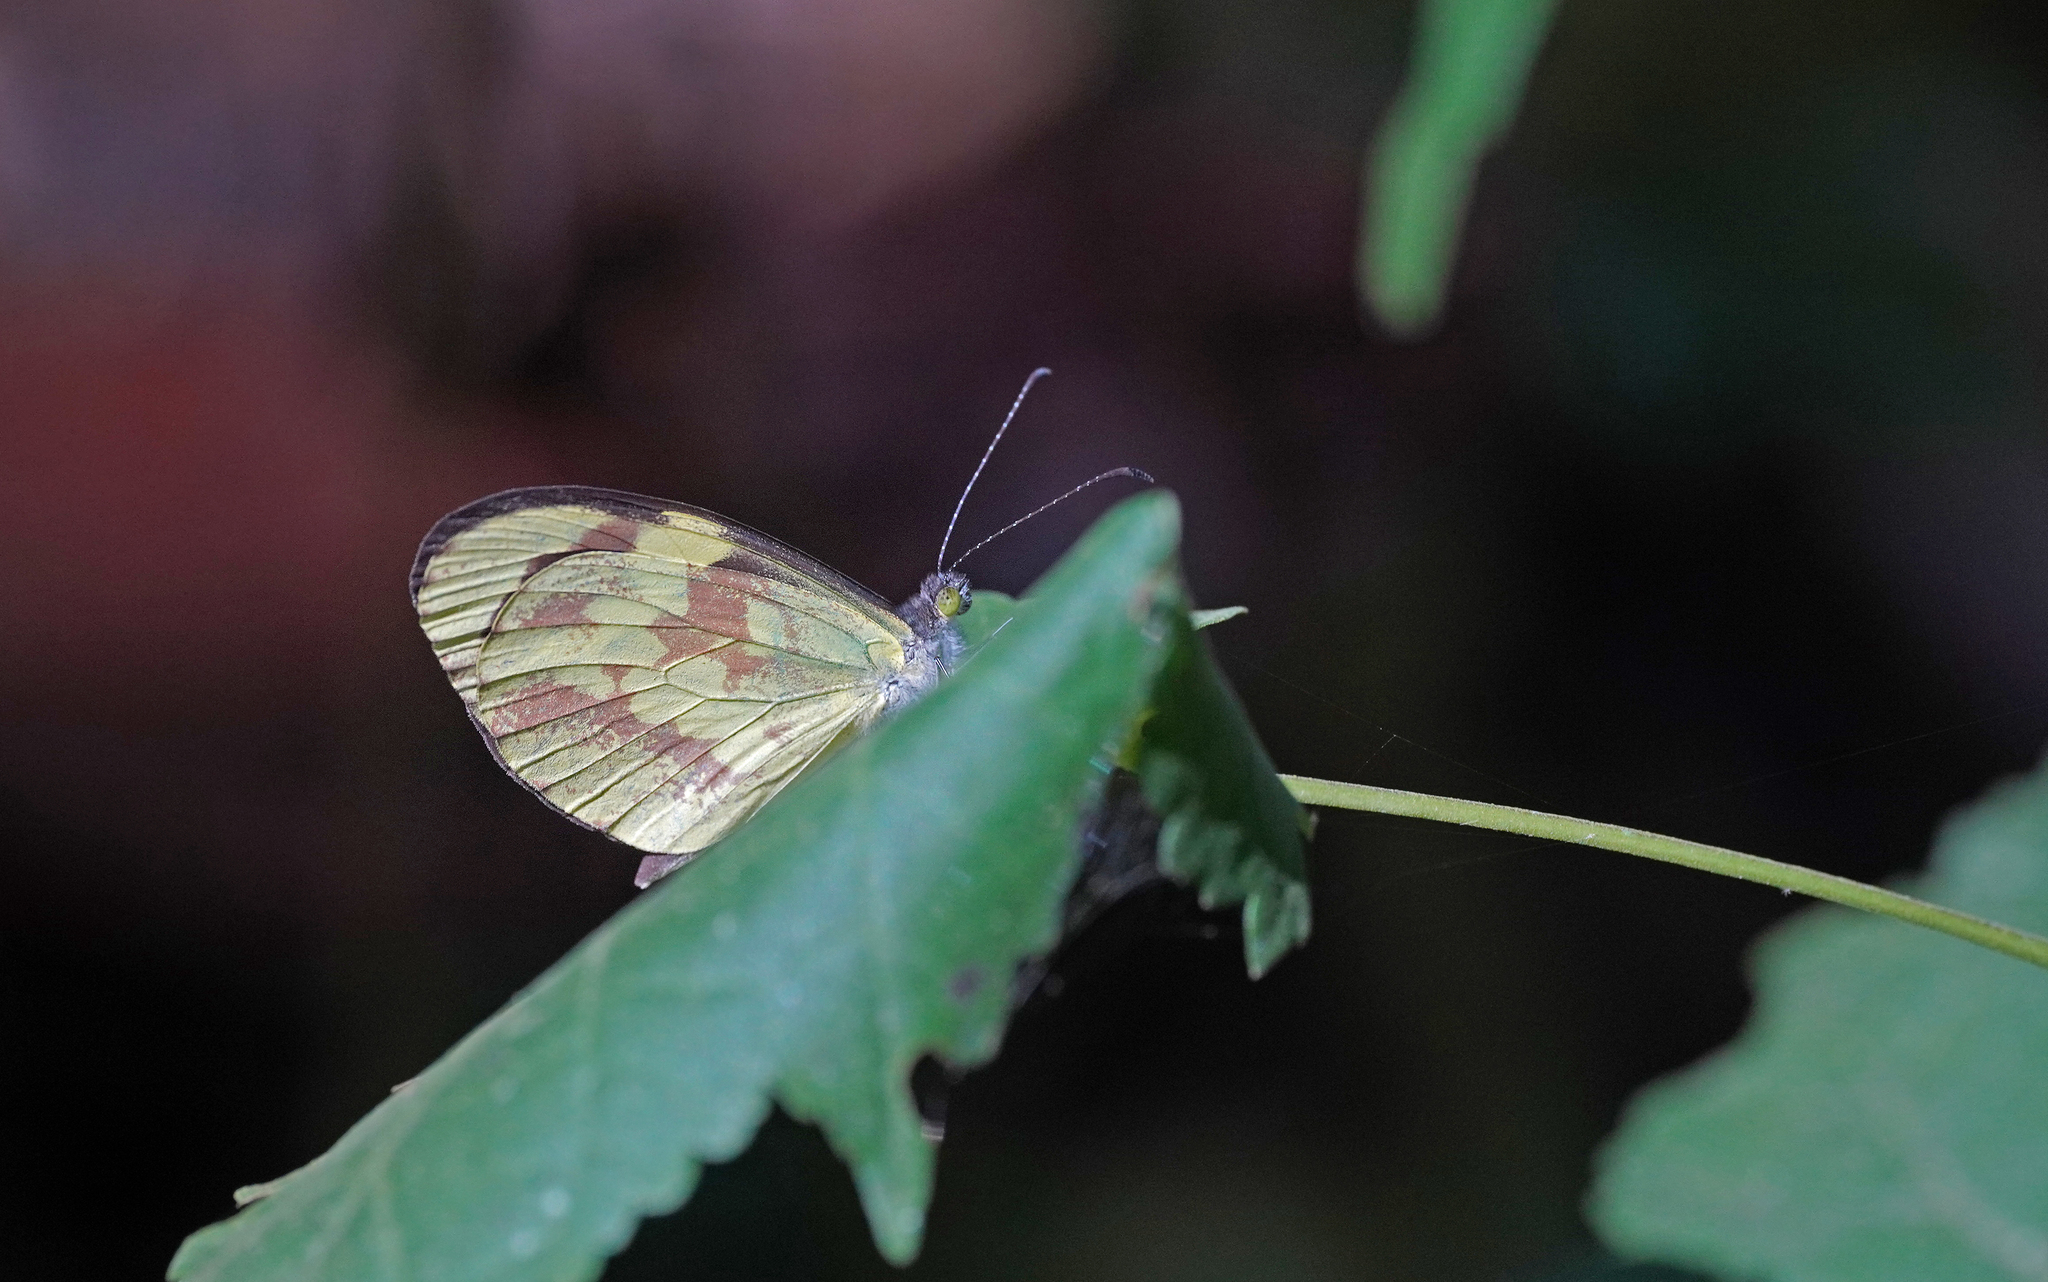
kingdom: Animalia
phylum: Arthropoda
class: Insecta
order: Lepidoptera
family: Pieridae
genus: Dismorphia
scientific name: Dismorphia medora
